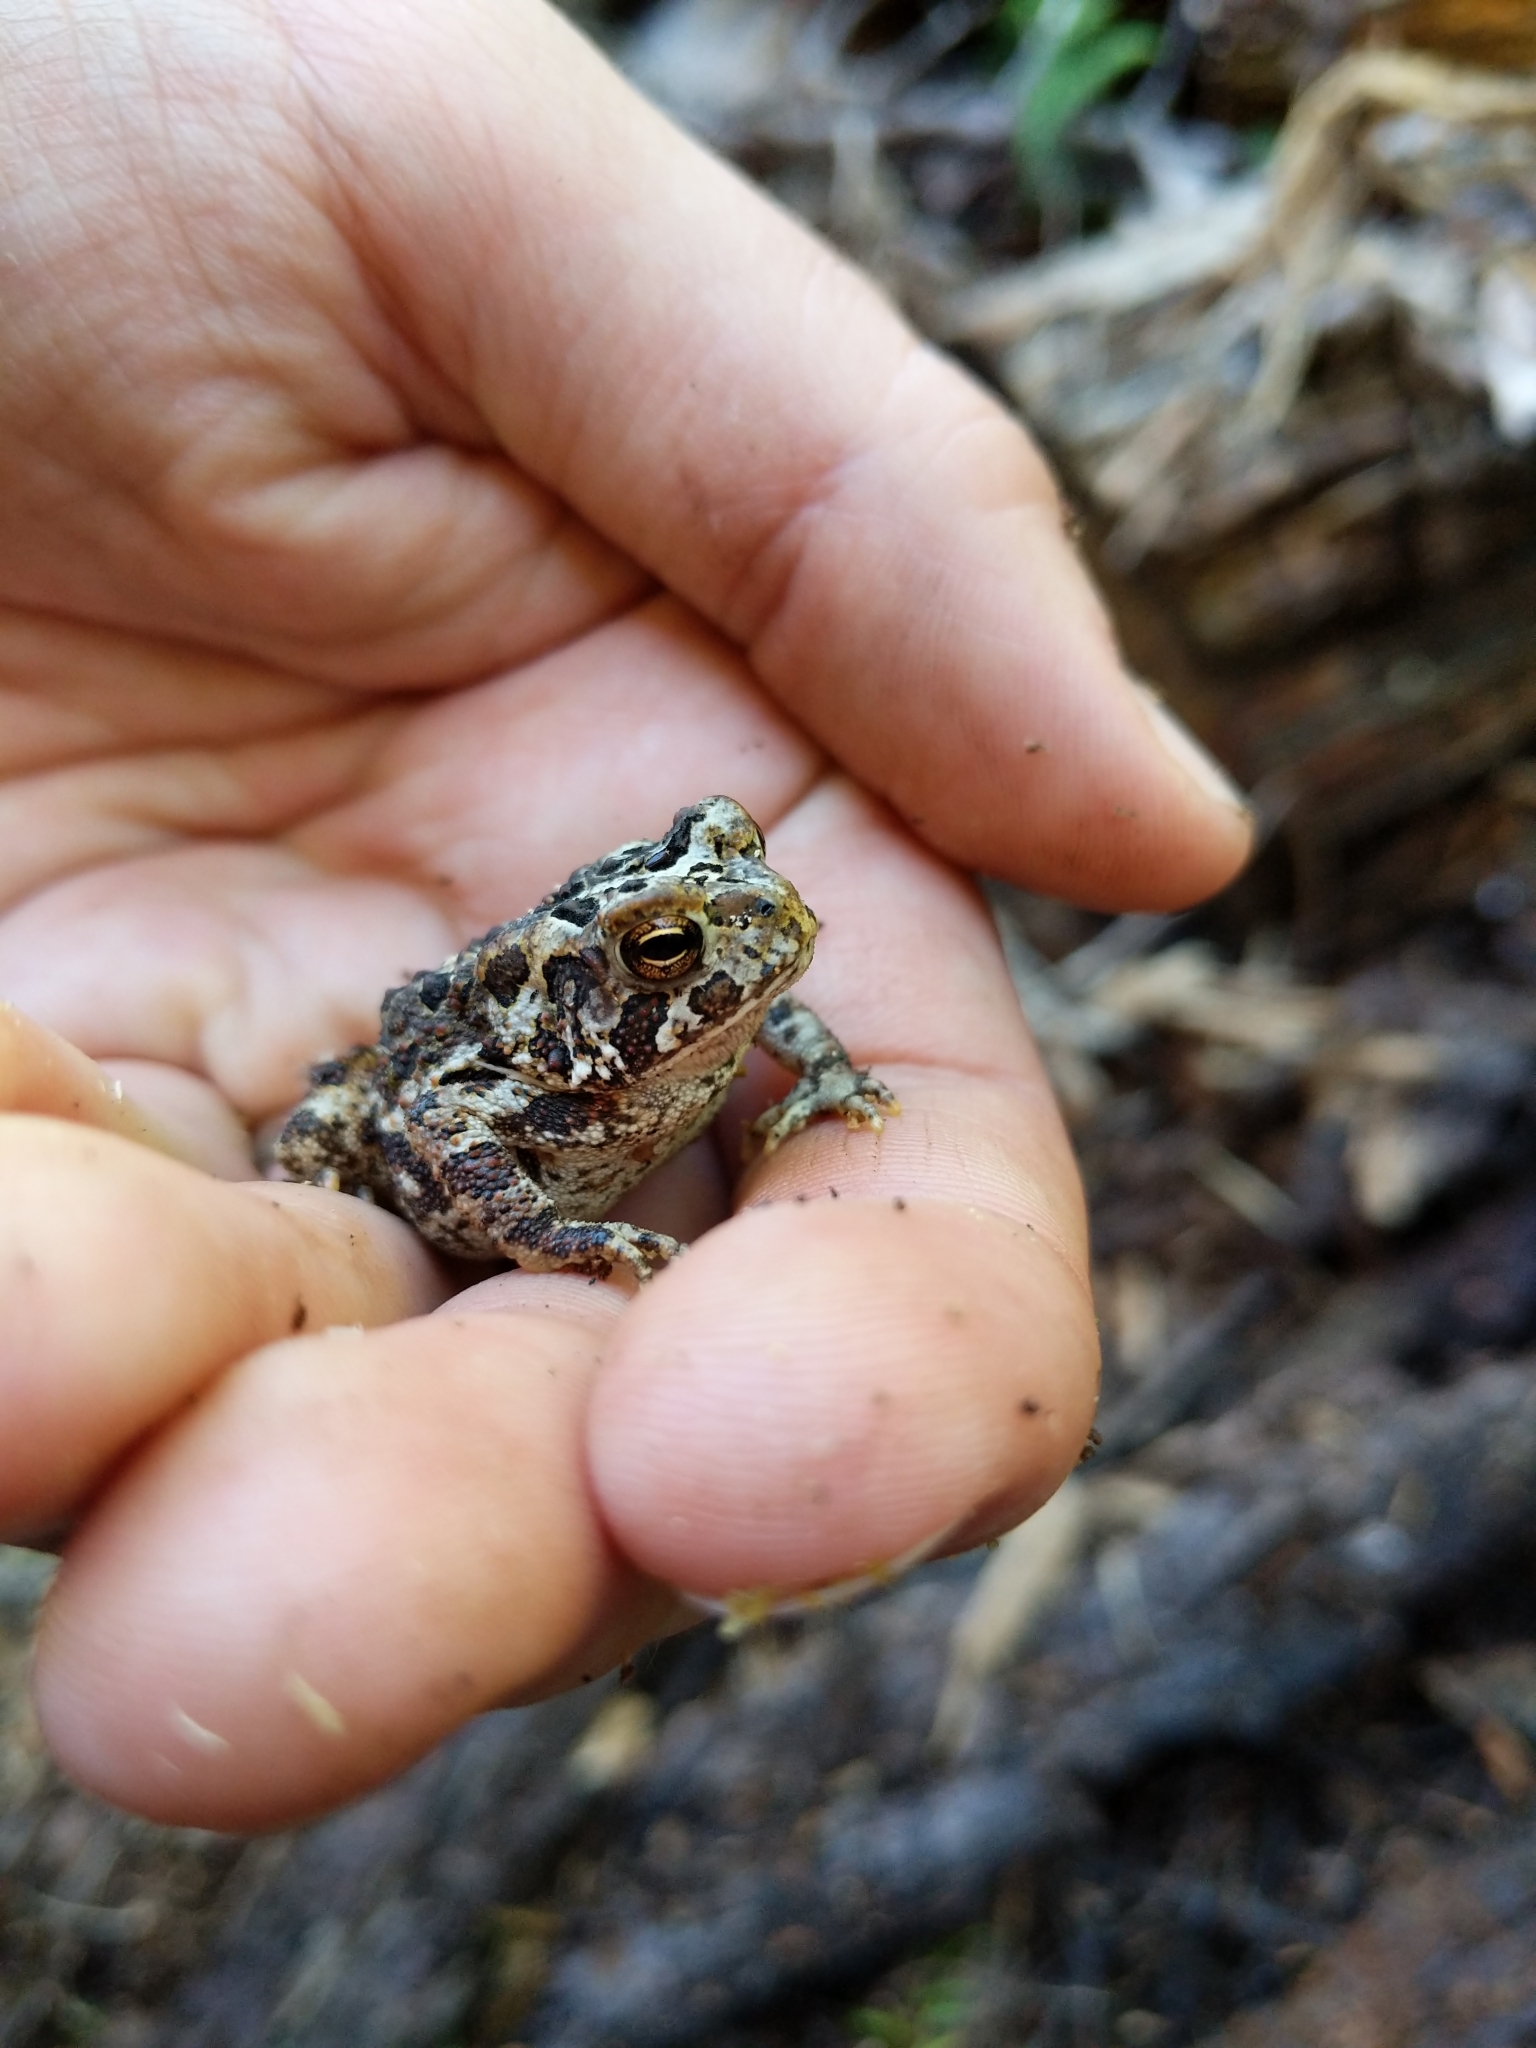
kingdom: Animalia
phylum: Chordata
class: Amphibia
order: Anura
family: Bufonidae
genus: Anaxyrus
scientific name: Anaxyrus americanus
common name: American toad
